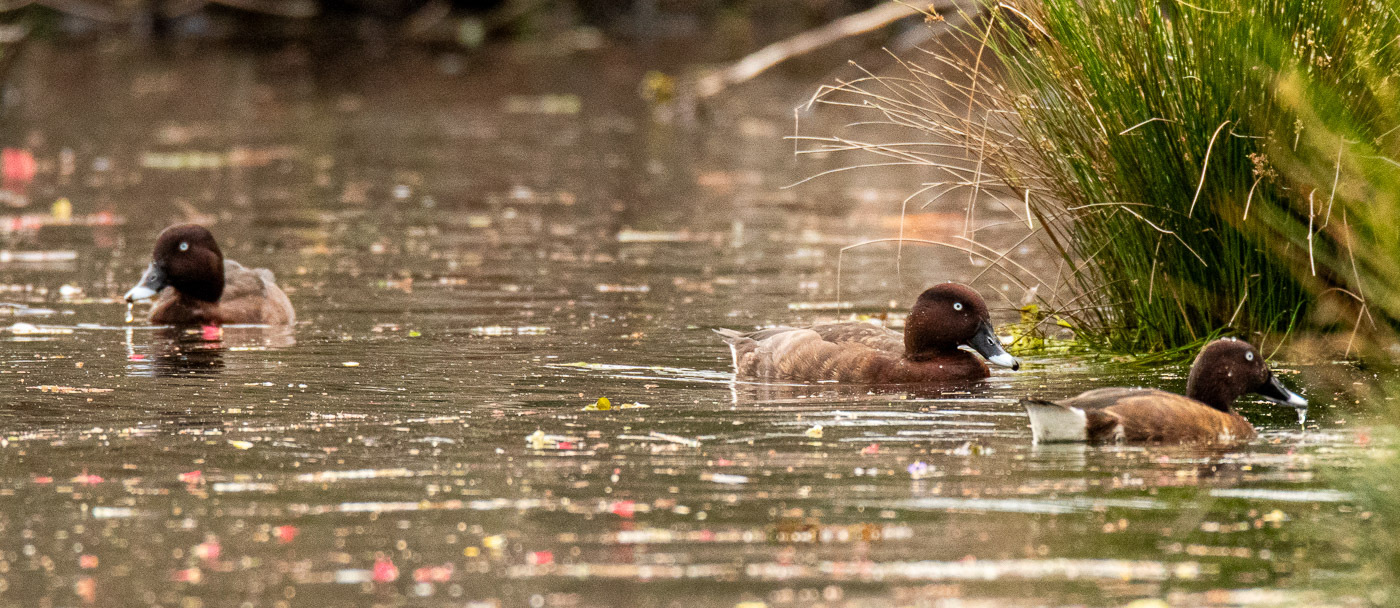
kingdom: Animalia
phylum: Chordata
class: Aves
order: Anseriformes
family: Anatidae
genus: Aythya
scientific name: Aythya australis
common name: Hardhead
